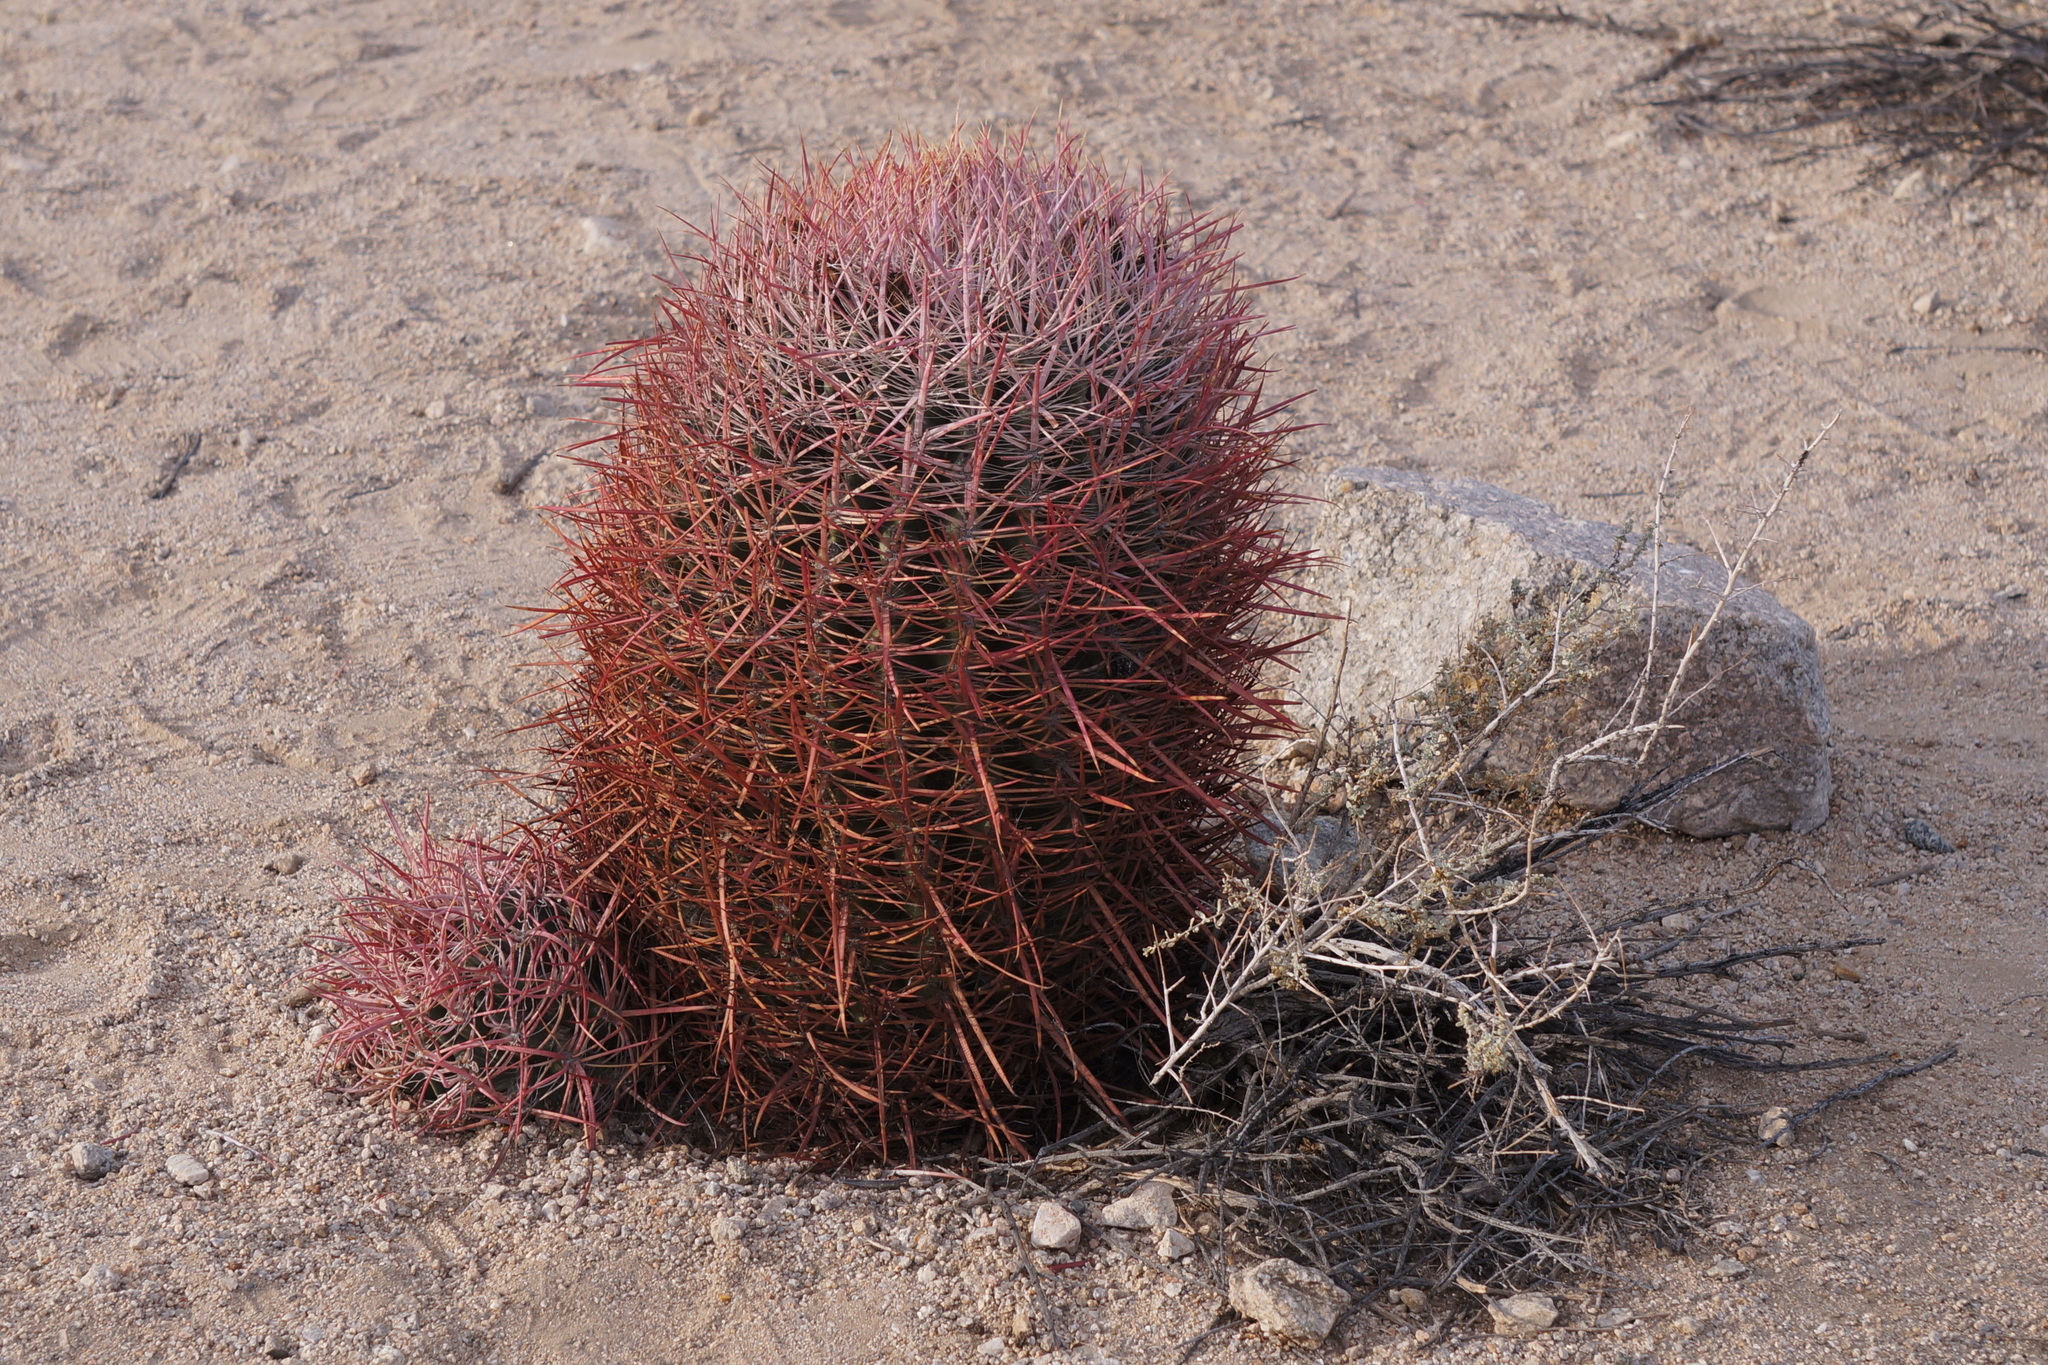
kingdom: Plantae
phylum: Tracheophyta
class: Magnoliopsida
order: Caryophyllales
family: Cactaceae
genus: Ferocactus
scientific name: Ferocactus cylindraceus
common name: California barrel cactus
